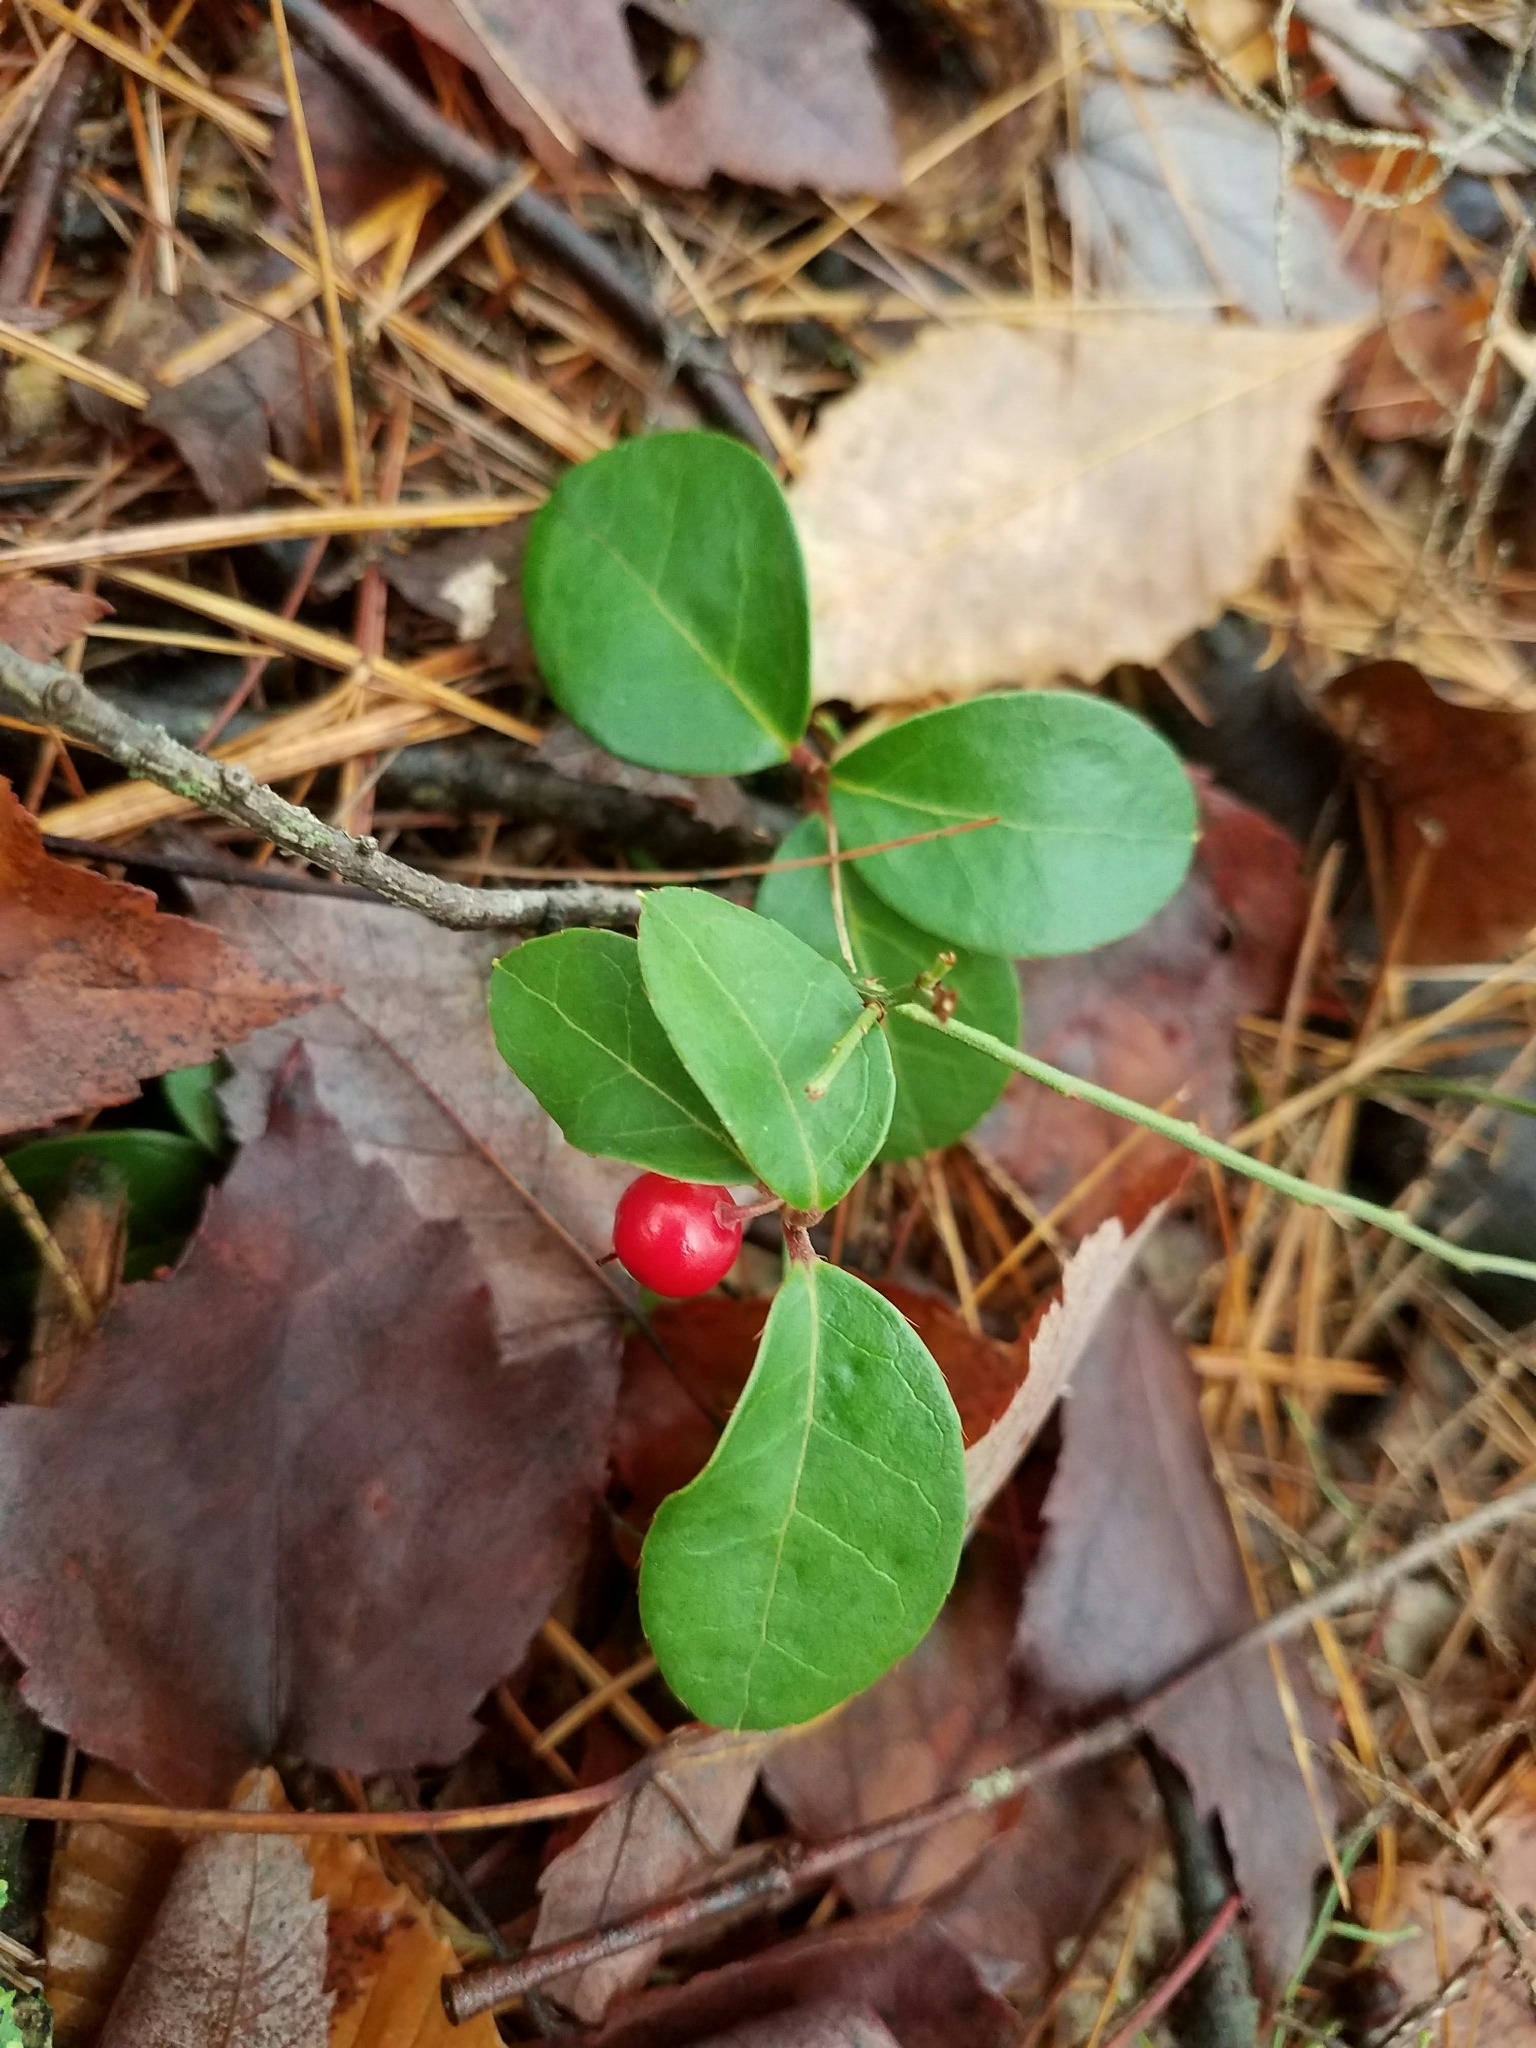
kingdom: Plantae
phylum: Tracheophyta
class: Magnoliopsida
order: Ericales
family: Ericaceae
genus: Gaultheria
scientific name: Gaultheria procumbens
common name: Checkerberry
